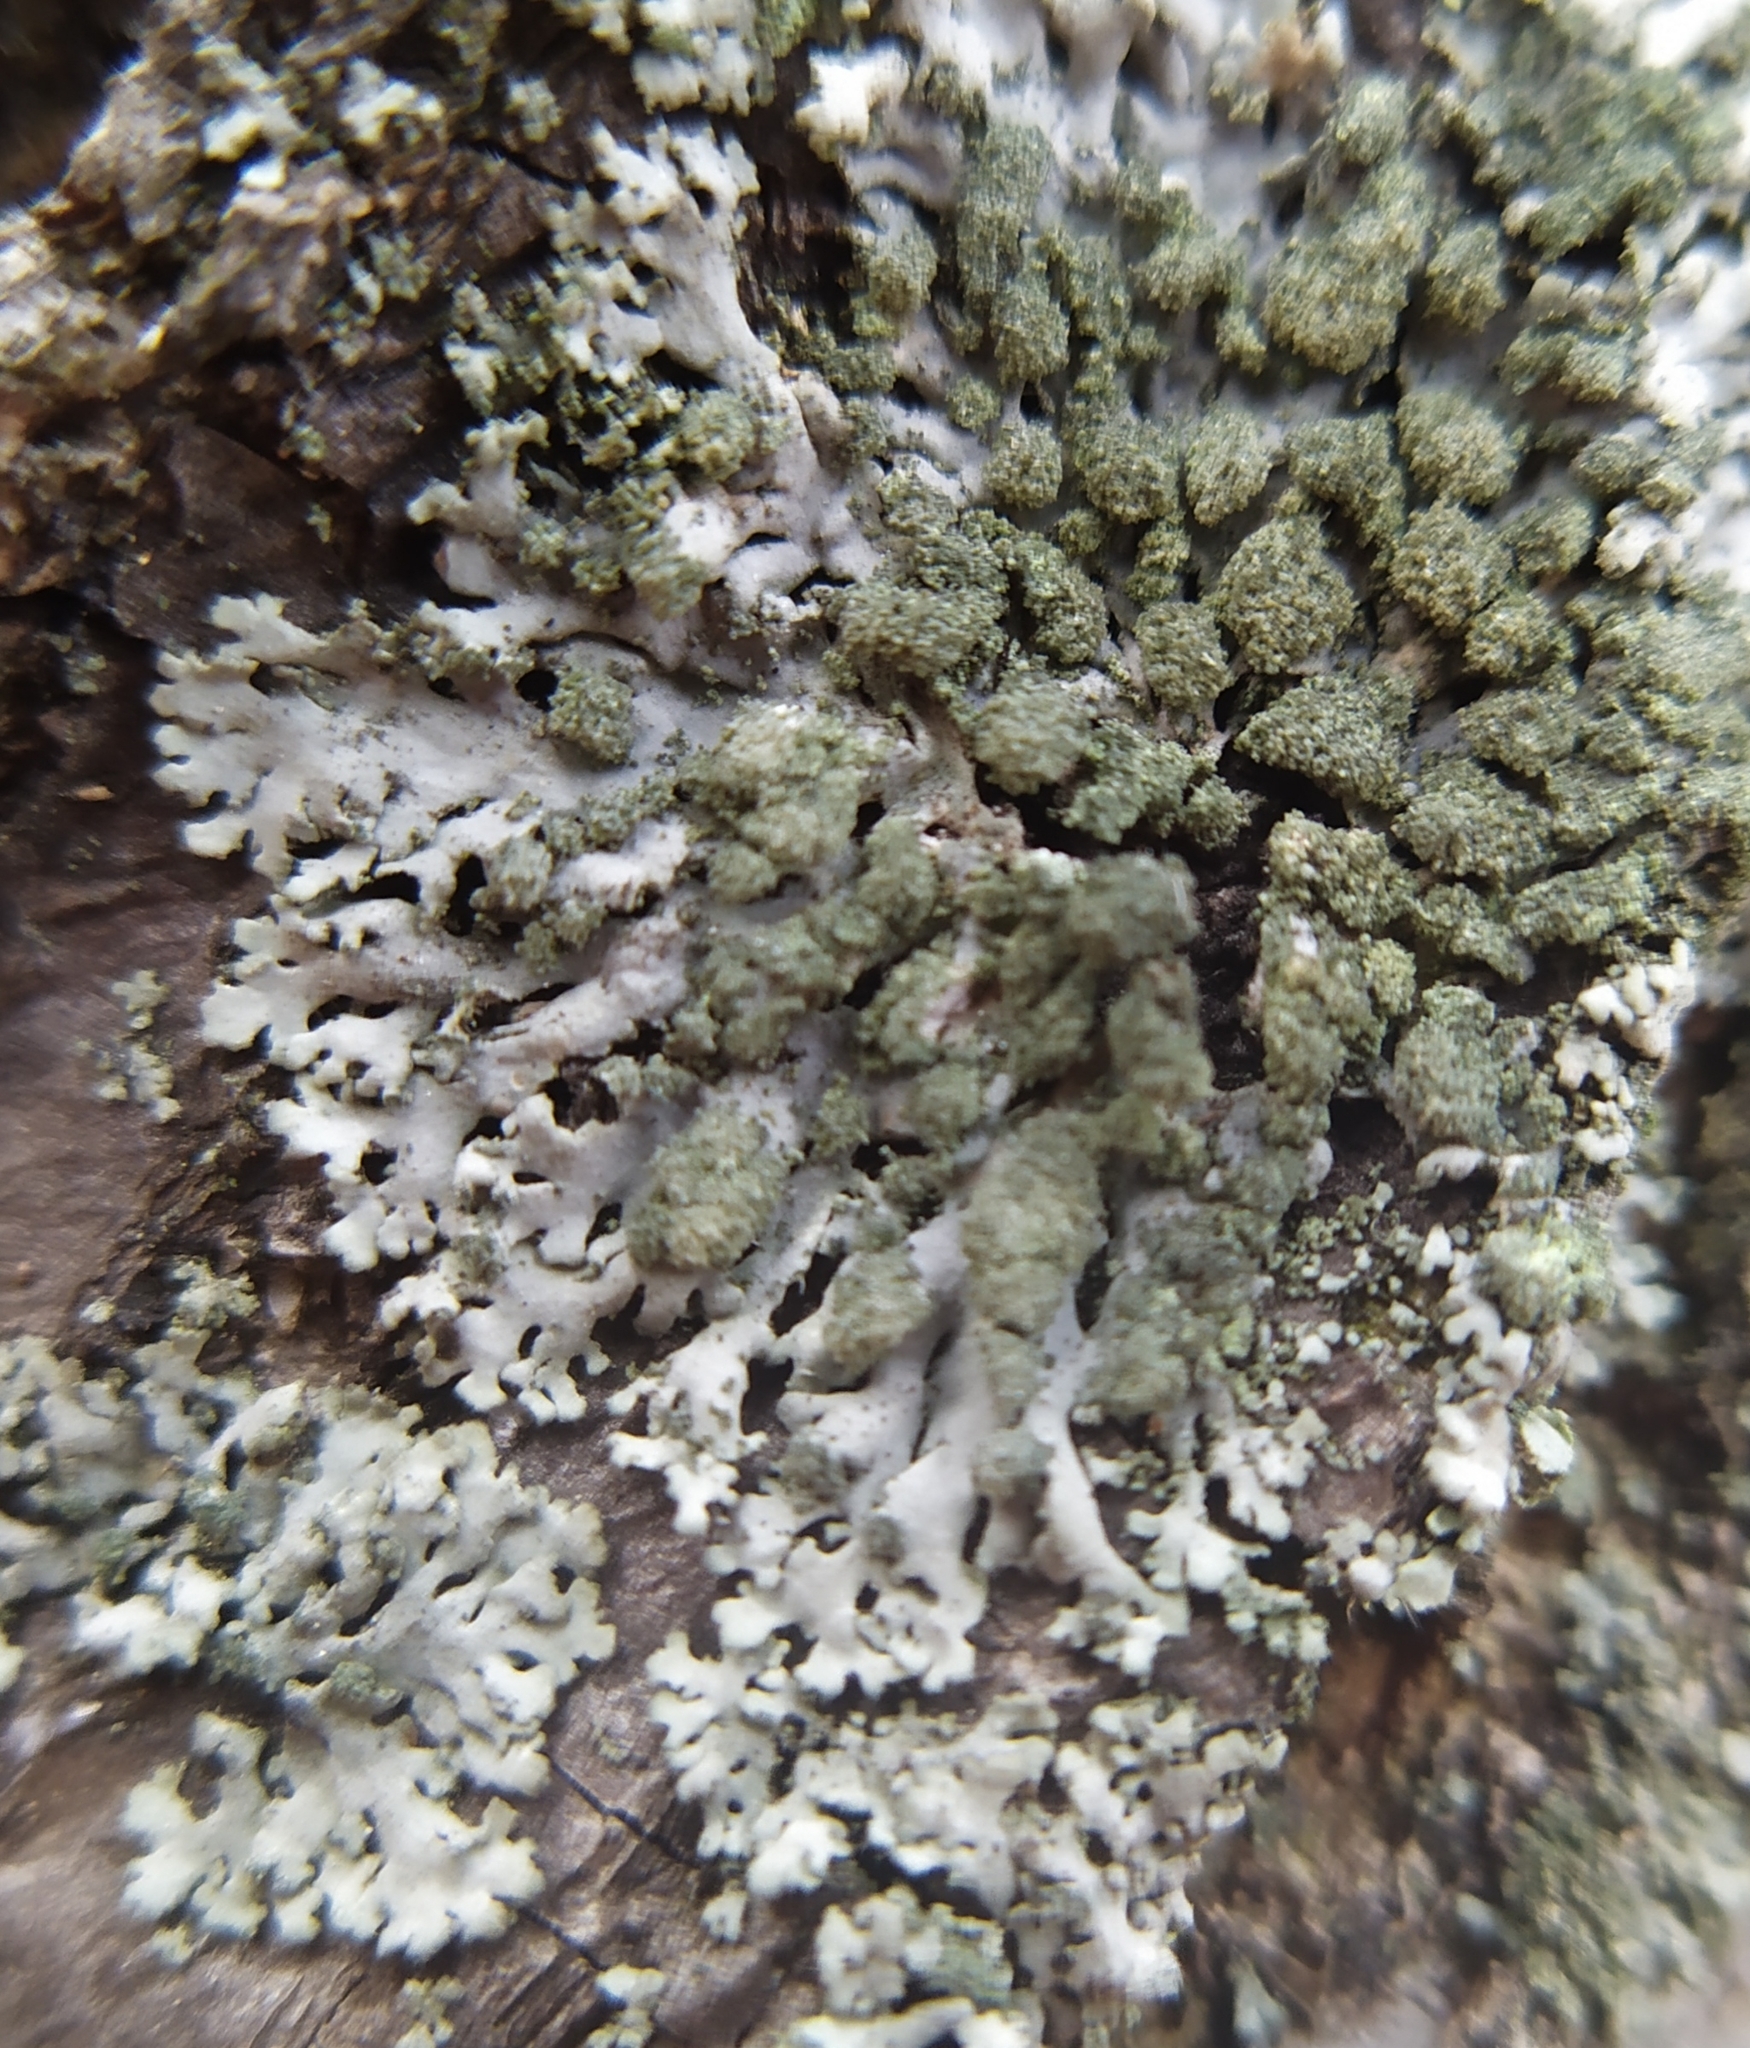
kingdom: Fungi
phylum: Ascomycota
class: Lecanoromycetes
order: Caliciales
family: Physciaceae
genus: Phaeophyscia
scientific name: Phaeophyscia orbicularis
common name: Mealy shadow lichen
